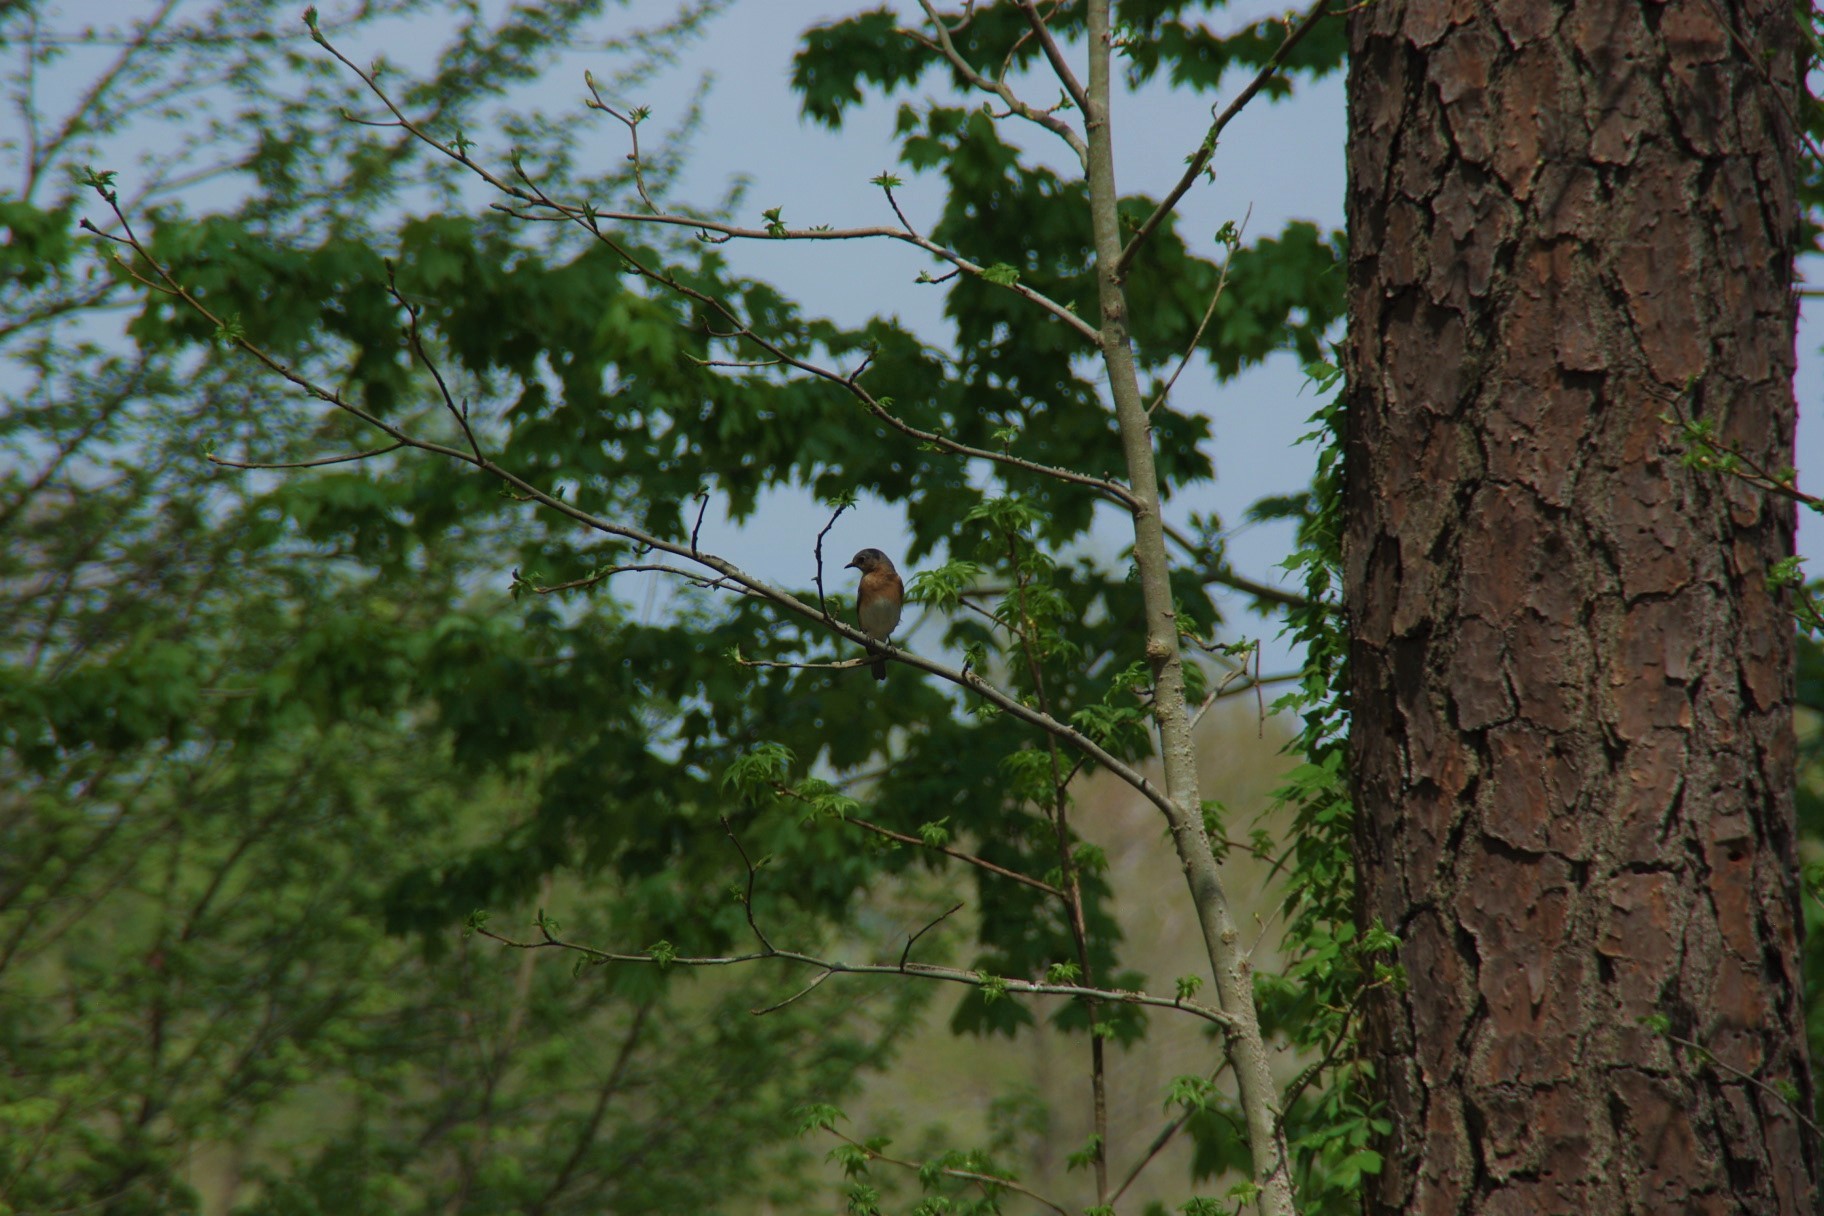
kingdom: Animalia
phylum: Chordata
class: Aves
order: Passeriformes
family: Turdidae
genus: Sialia
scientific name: Sialia sialis
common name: Eastern bluebird
